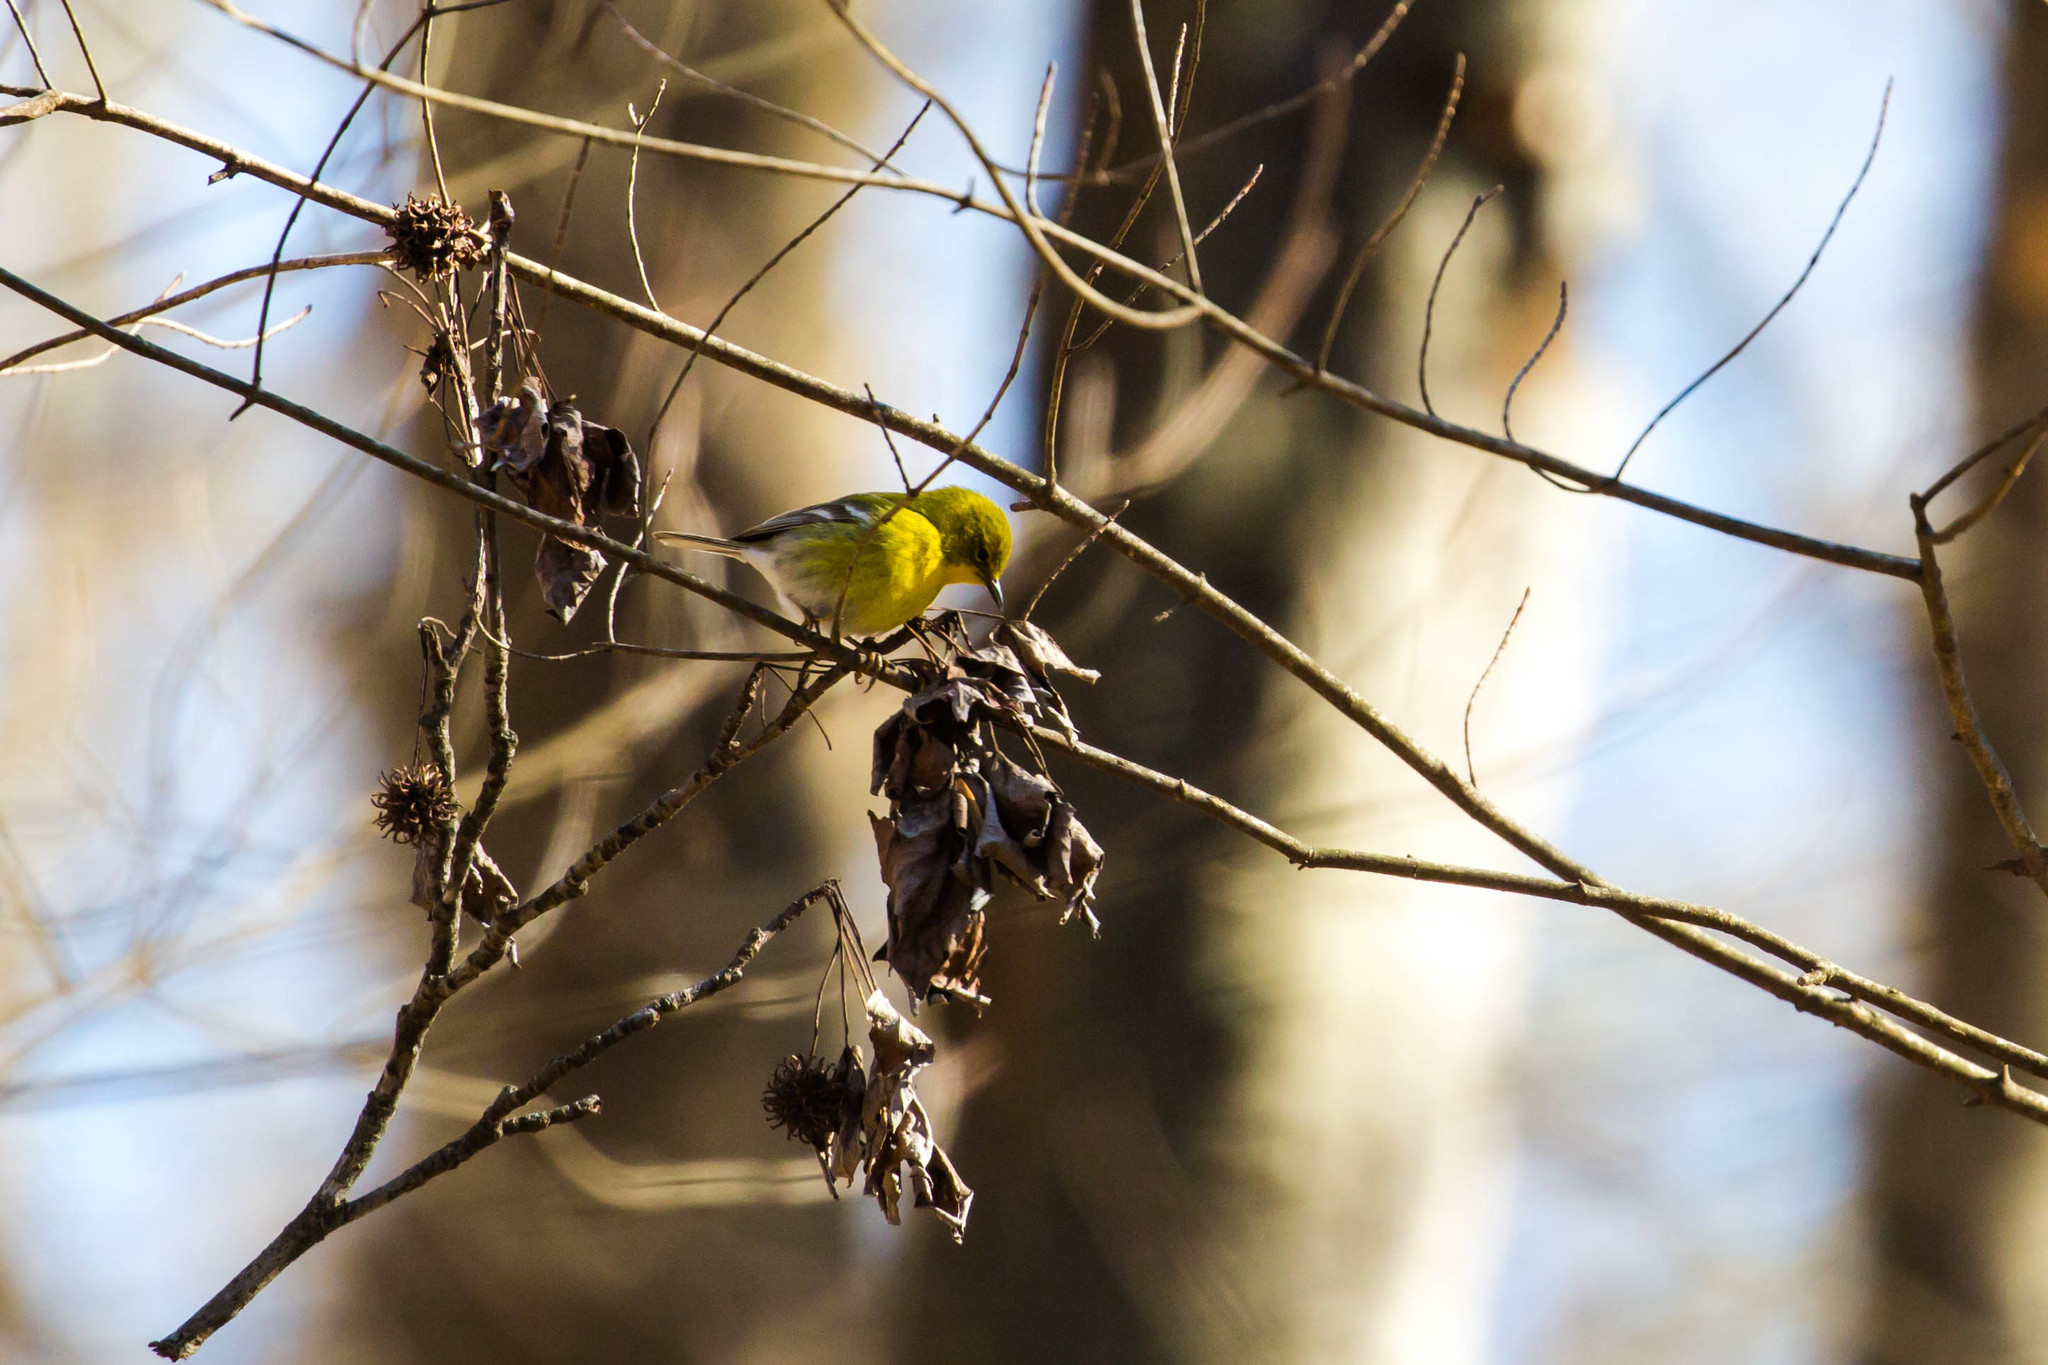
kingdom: Animalia
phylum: Chordata
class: Aves
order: Passeriformes
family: Parulidae
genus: Setophaga
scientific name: Setophaga pinus
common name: Pine warbler
